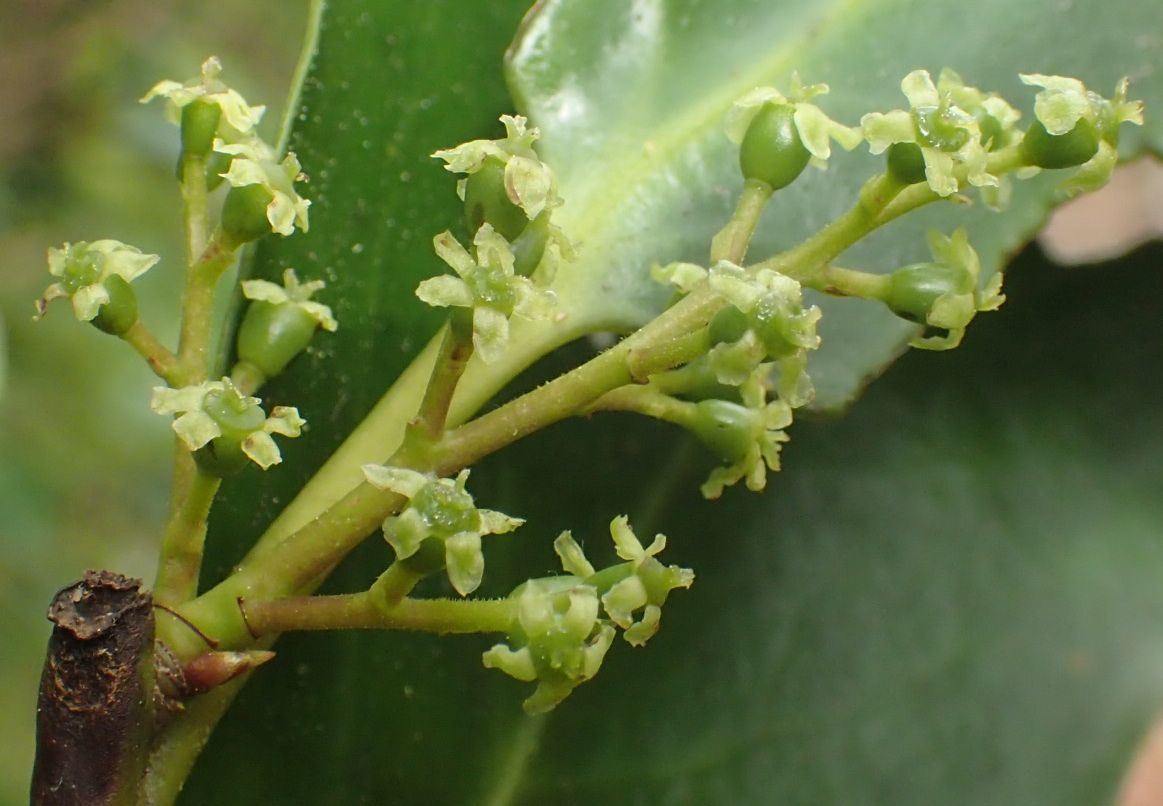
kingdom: Plantae
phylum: Tracheophyta
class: Magnoliopsida
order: Apiales
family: Griseliniaceae
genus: Griselinia
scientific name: Griselinia littoralis
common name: New zealand broadleaf
